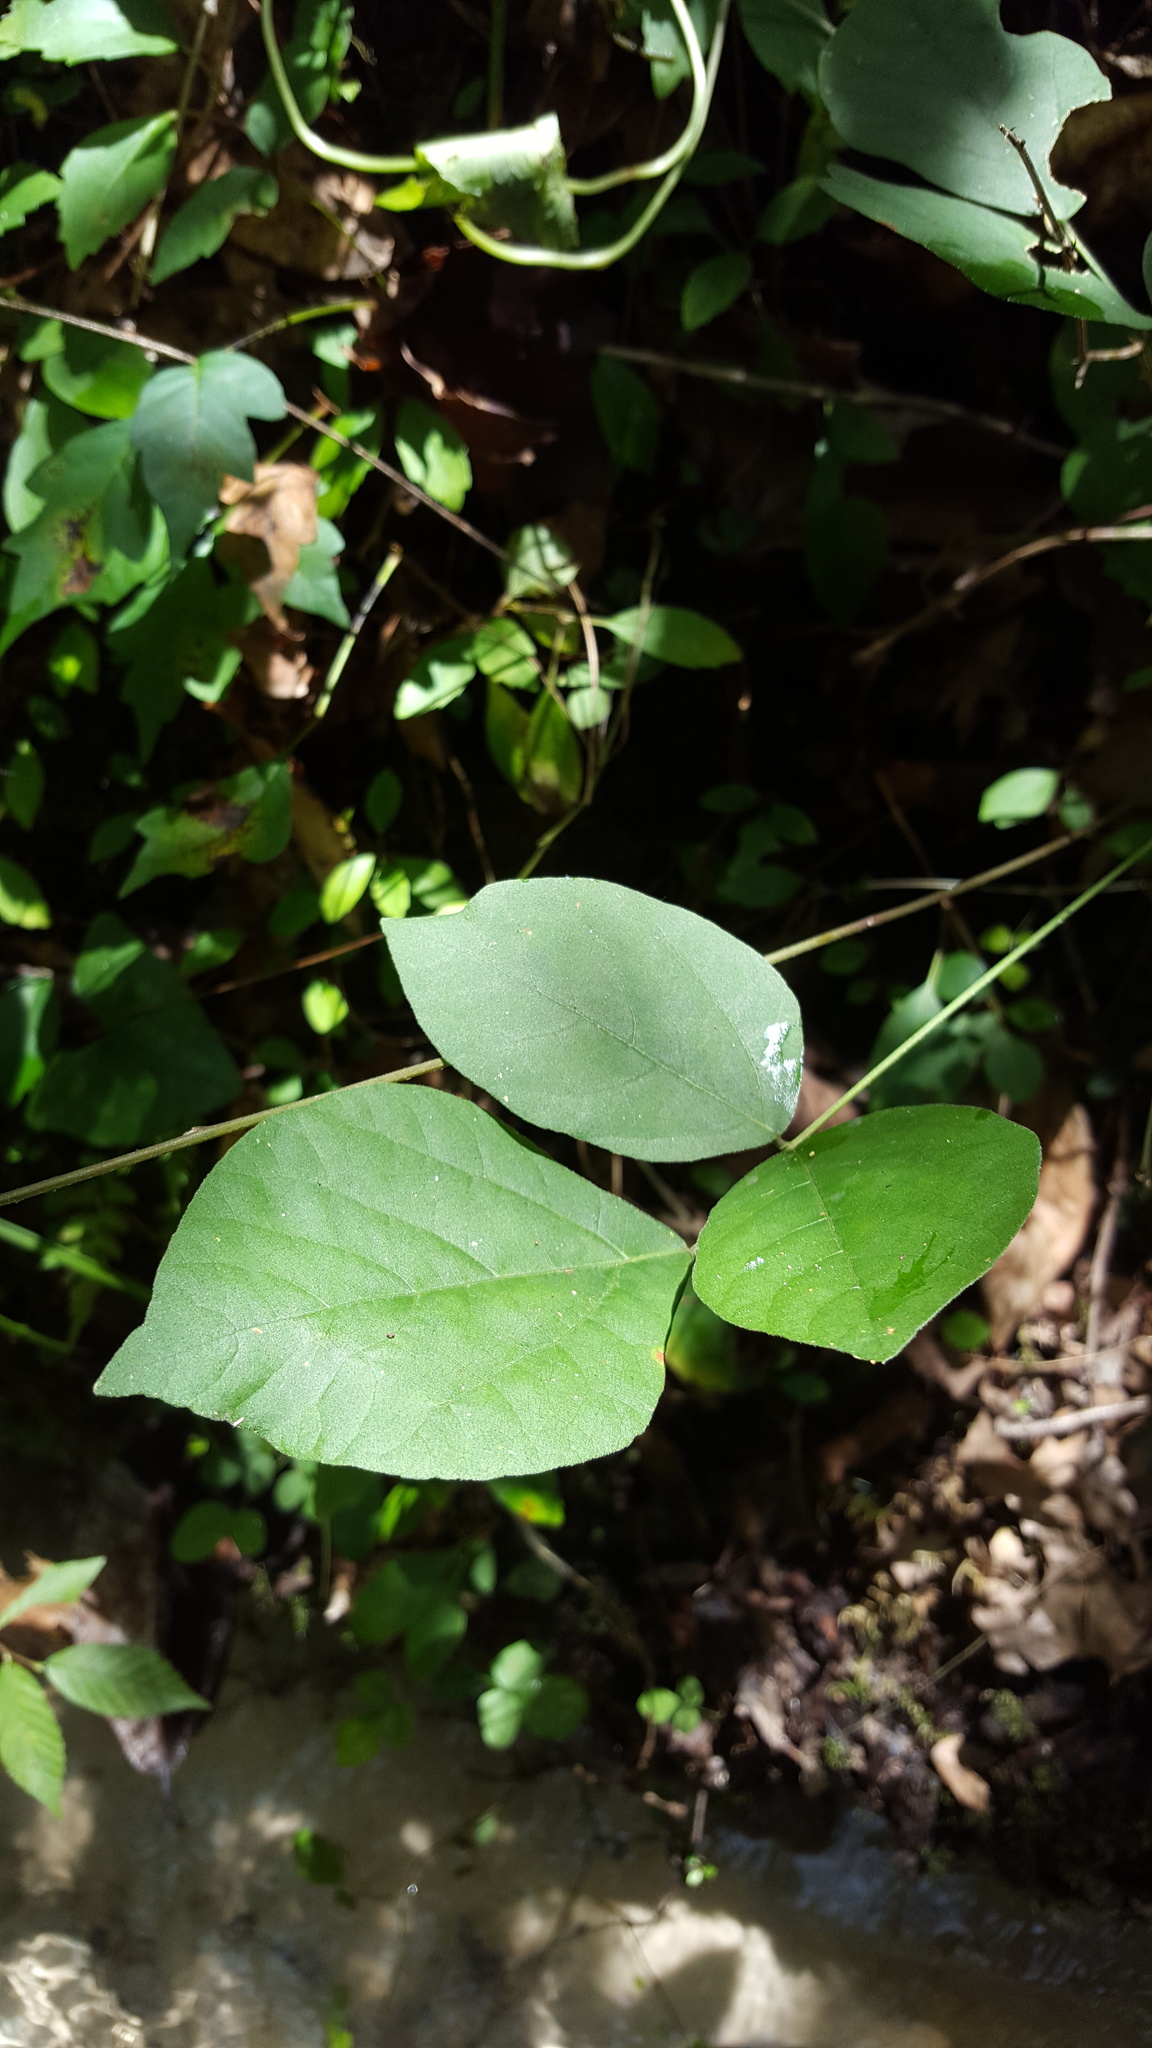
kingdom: Plantae
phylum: Tracheophyta
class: Magnoliopsida
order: Fabales
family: Fabaceae
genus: Hylodesmum
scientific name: Hylodesmum nudiflorum
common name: Bare-stemmed tick-trefoil
